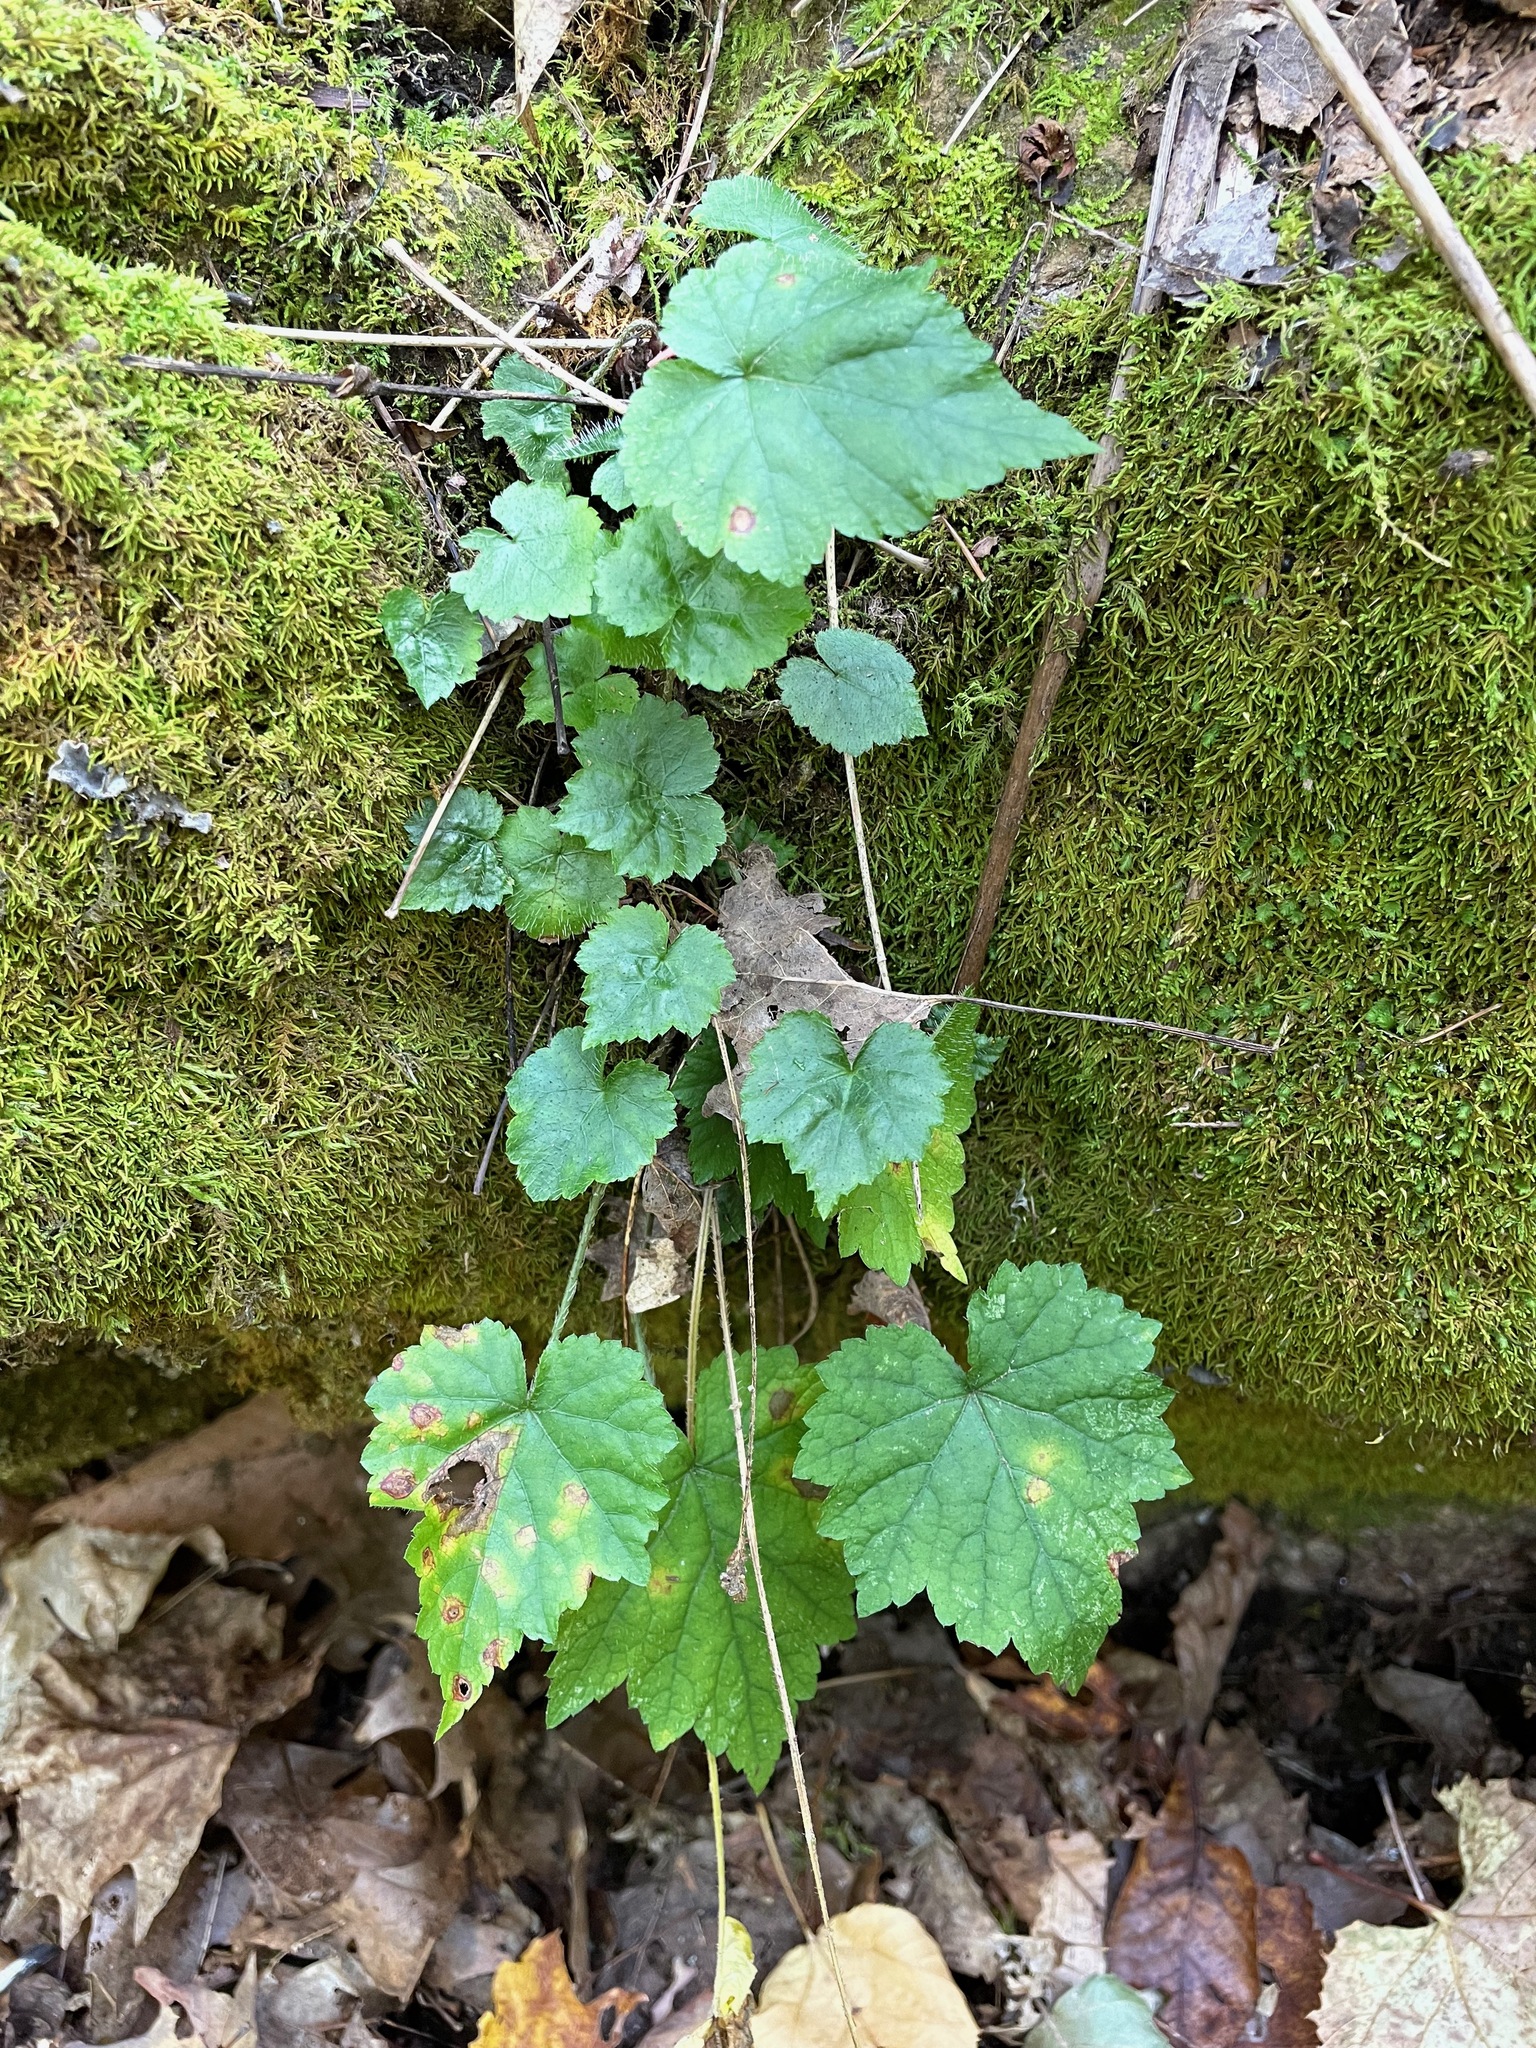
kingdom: Plantae
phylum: Tracheophyta
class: Magnoliopsida
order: Saxifragales
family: Saxifragaceae
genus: Mitella
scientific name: Mitella diphylla
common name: Coolwort
